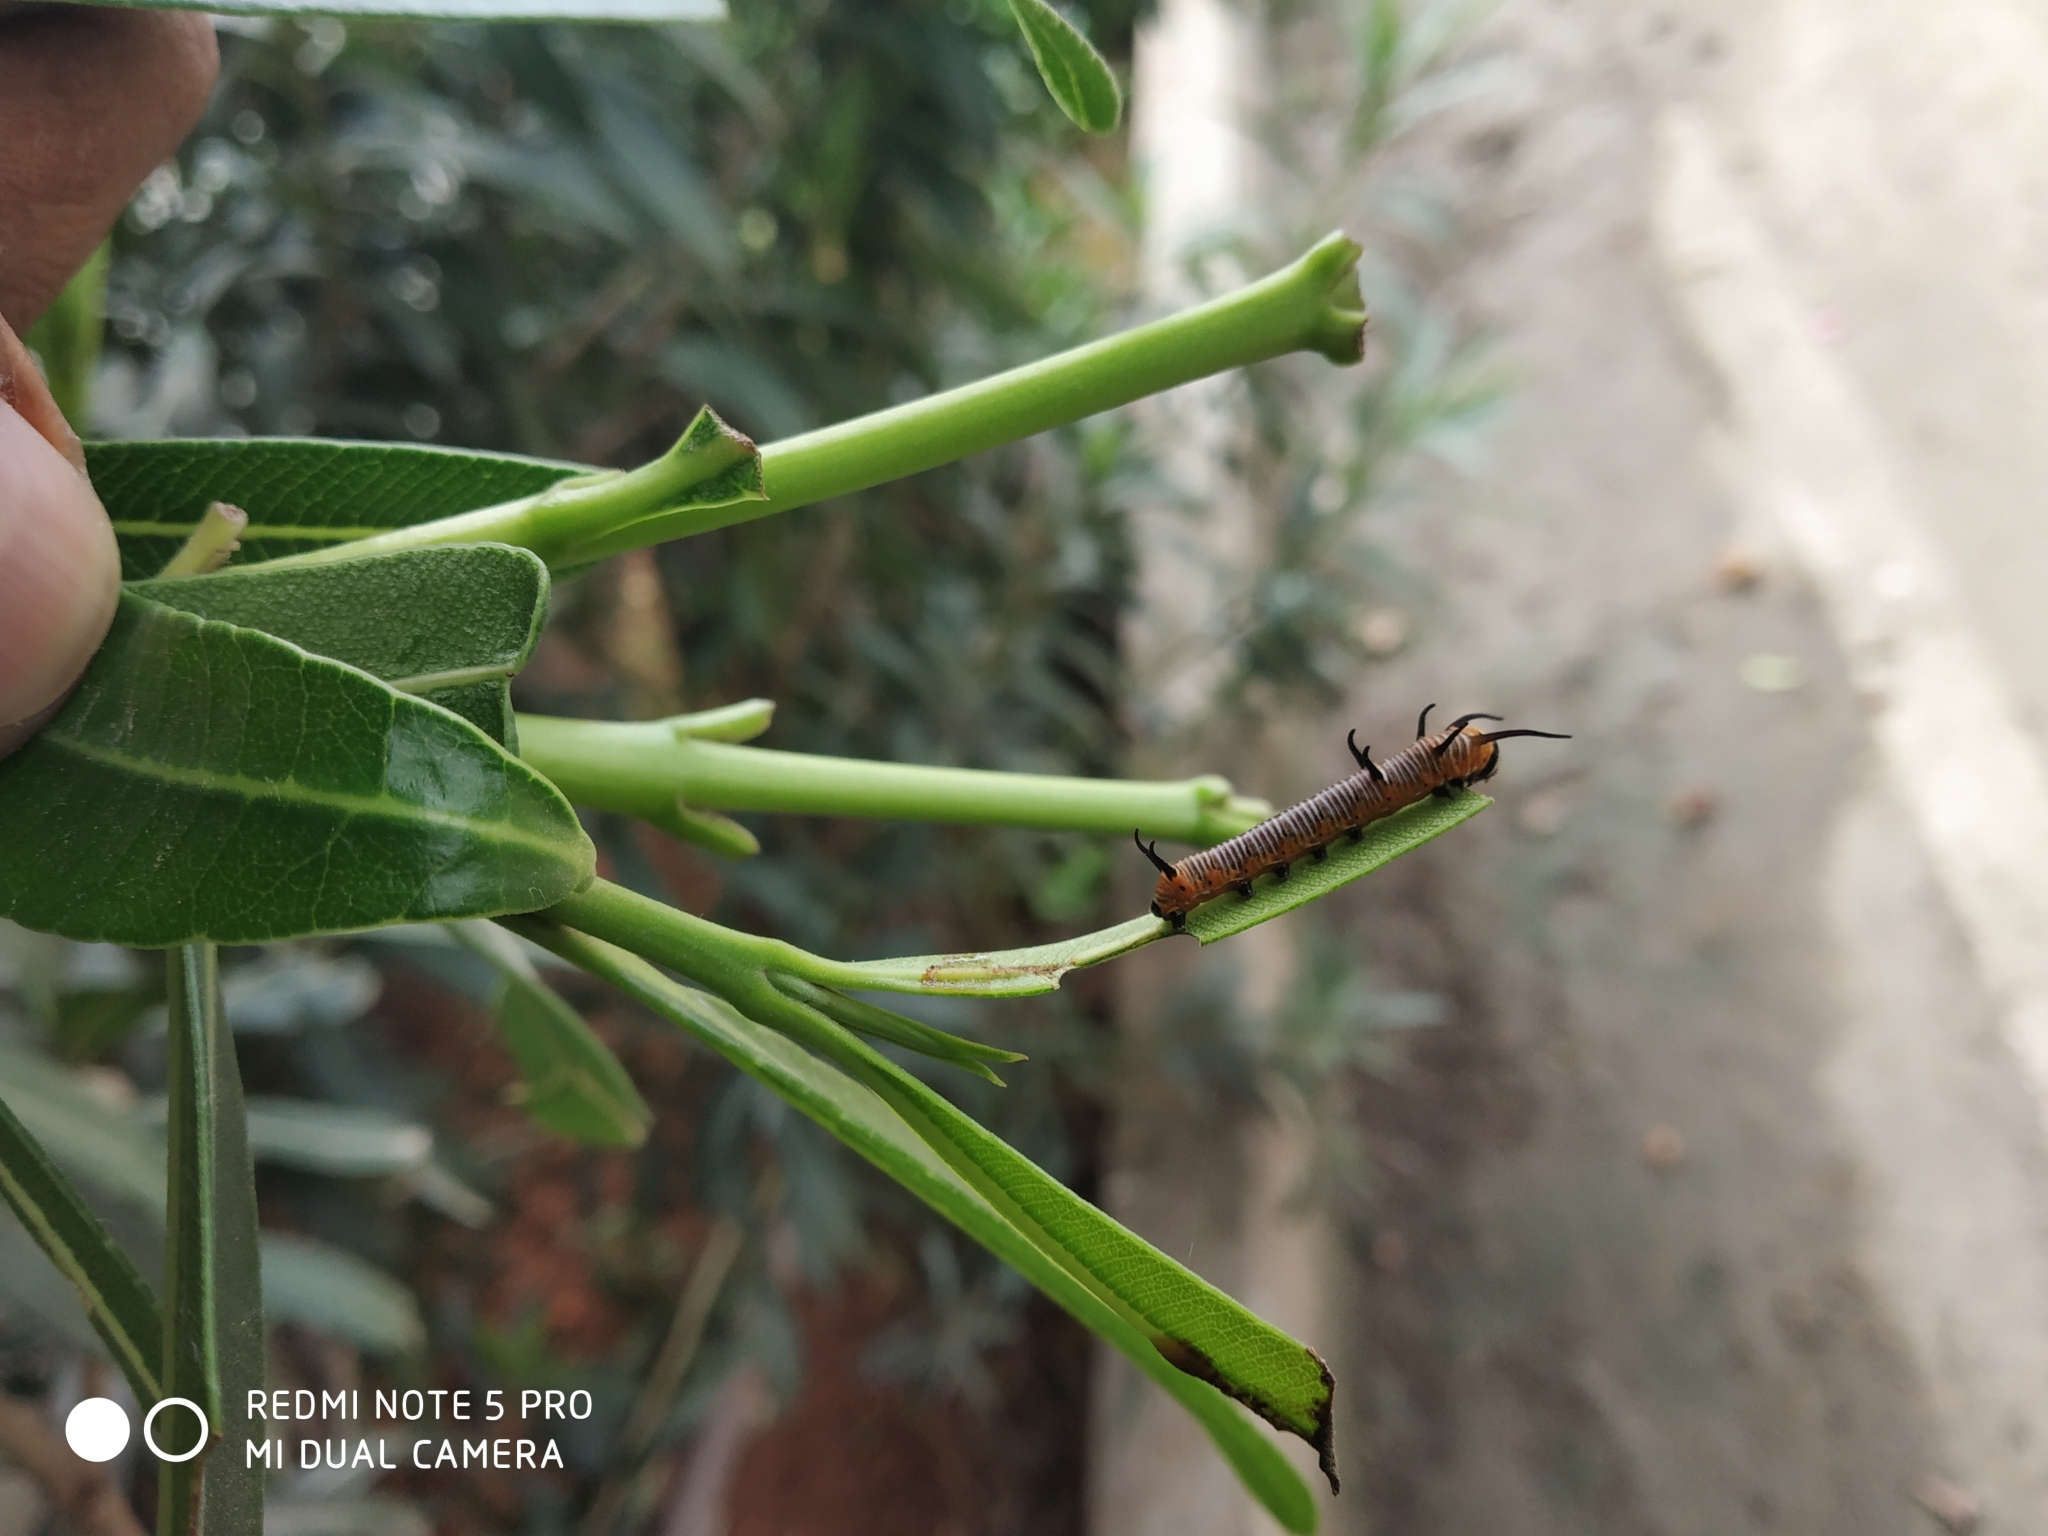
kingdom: Animalia
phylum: Arthropoda
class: Insecta
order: Lepidoptera
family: Nymphalidae
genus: Euploea
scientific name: Euploea core
